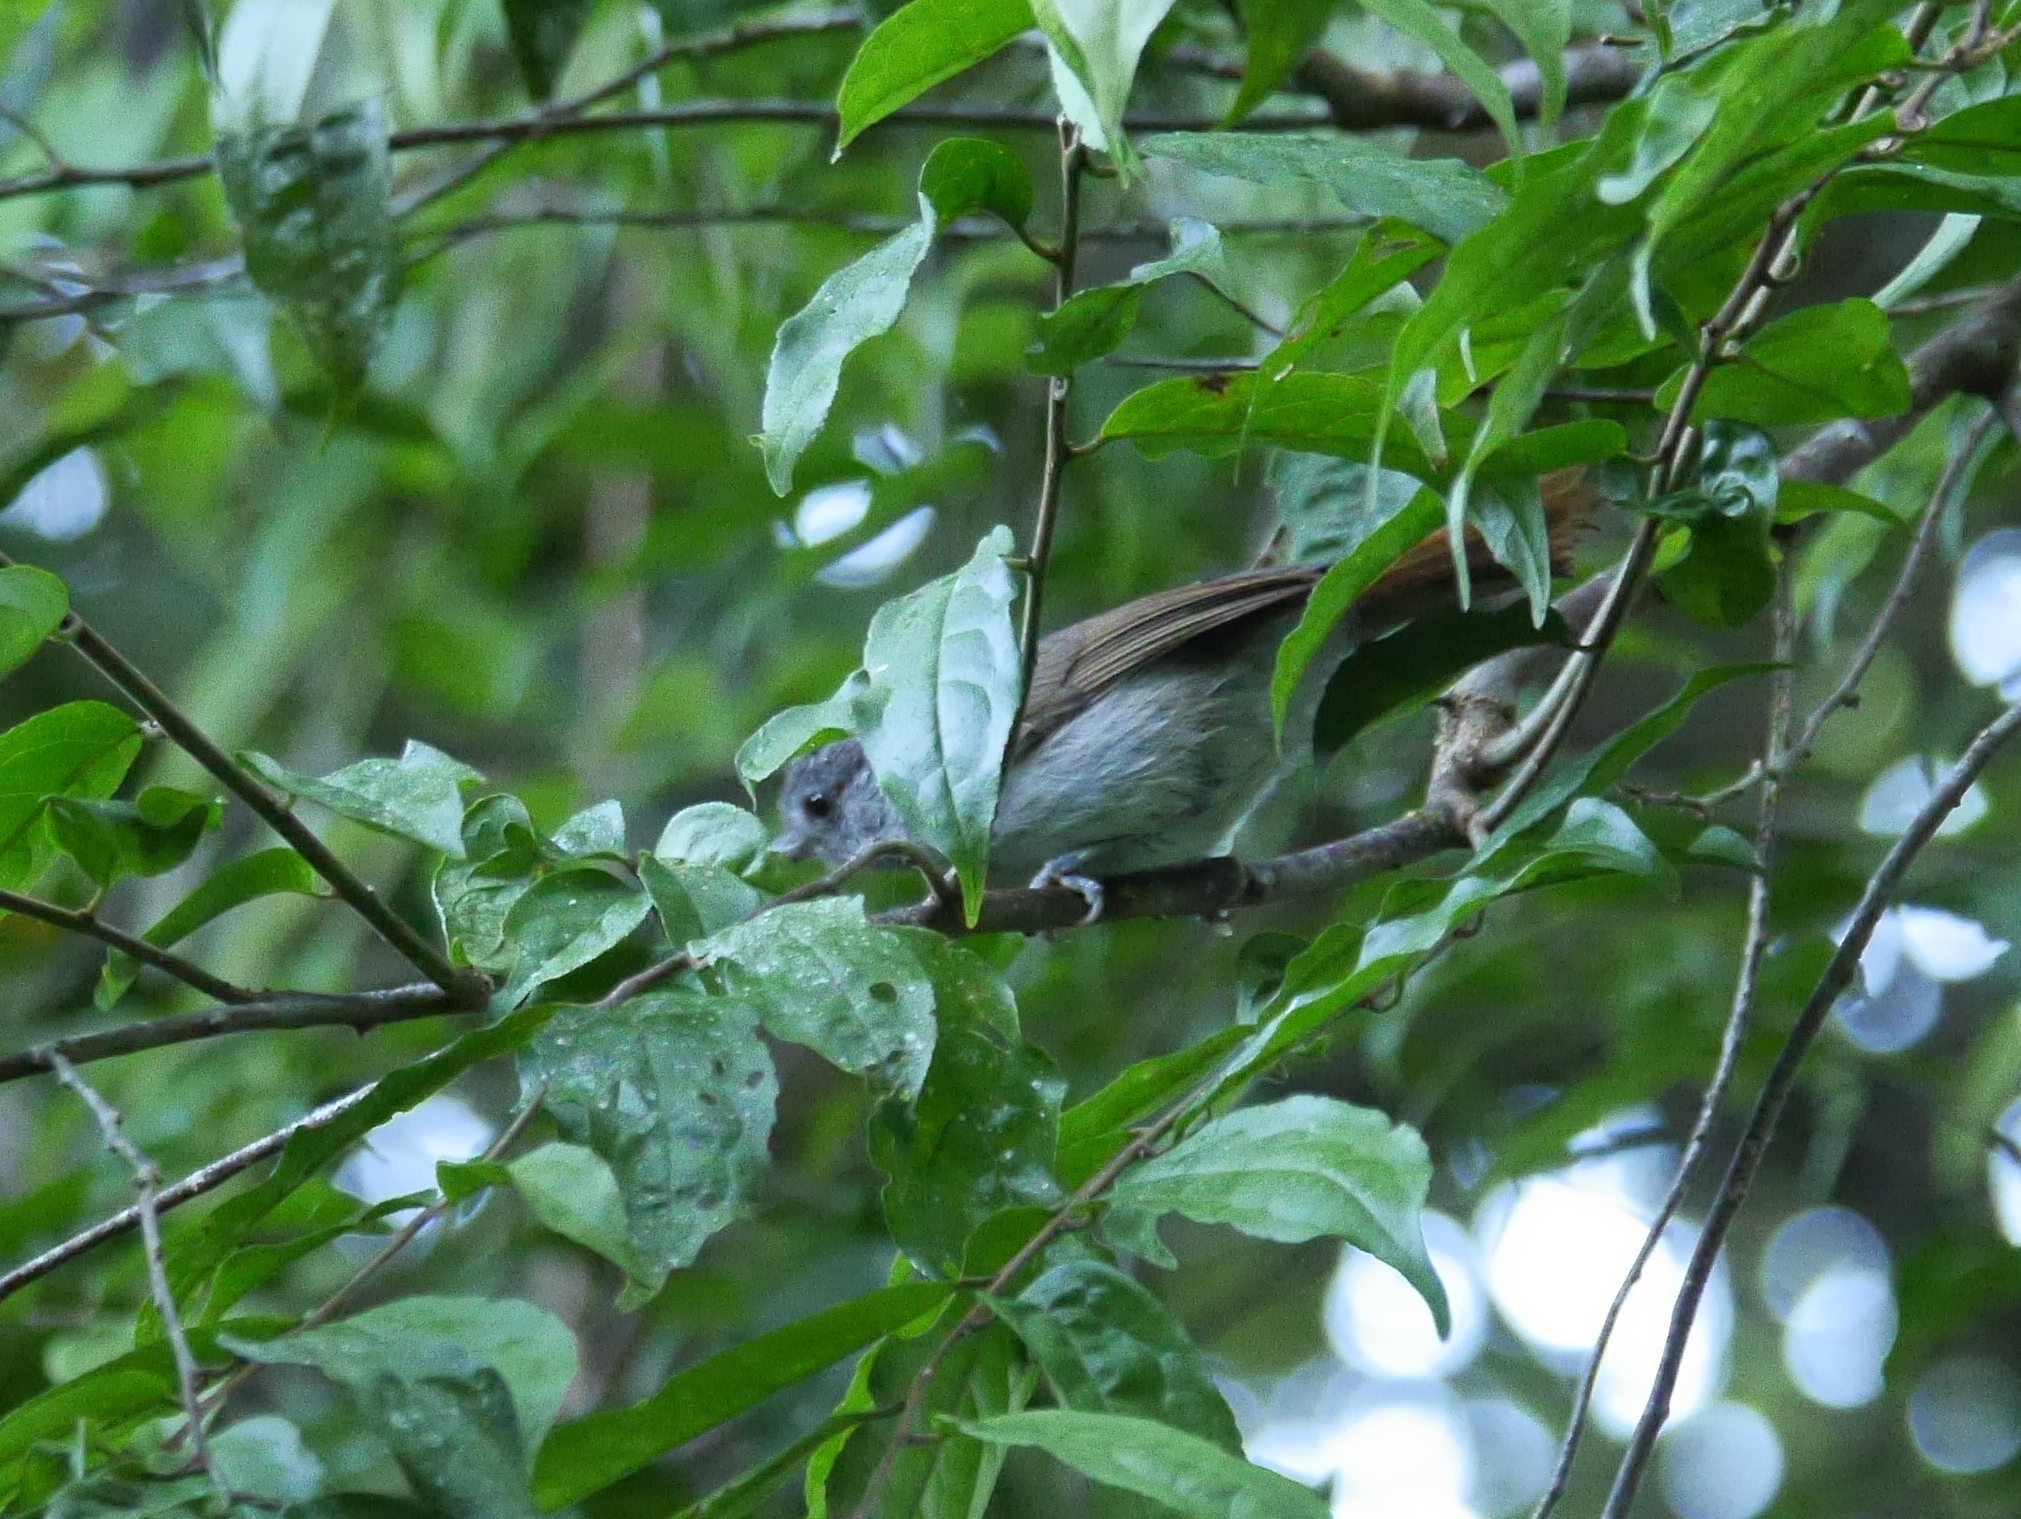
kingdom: Animalia
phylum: Chordata
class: Aves
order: Passeriformes
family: Pellorneidae
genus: Alcippe
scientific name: Alcippe brunneicauda
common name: Brown fulvetta
